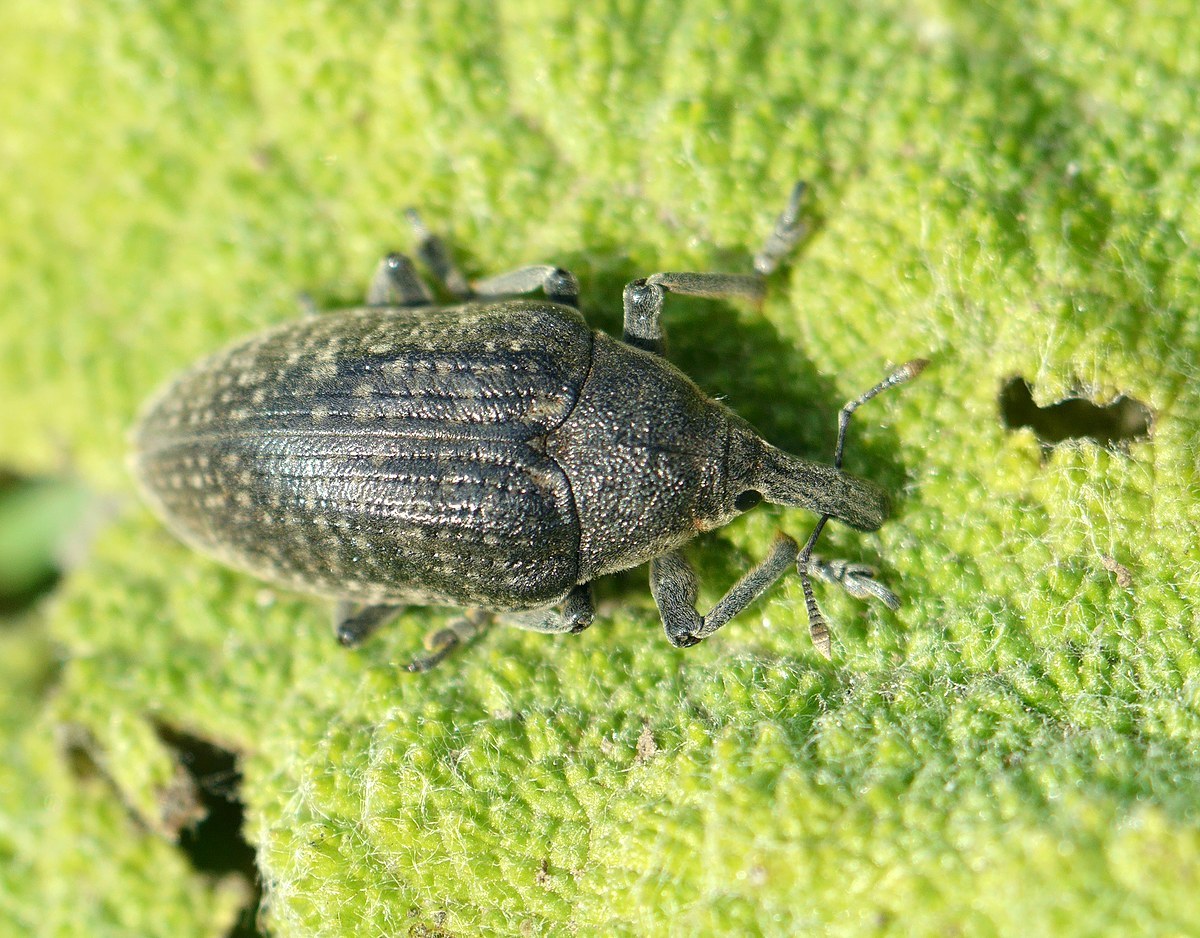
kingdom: Animalia
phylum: Arthropoda
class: Insecta
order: Coleoptera
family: Curculionidae
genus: Larinus
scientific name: Larinus latus
